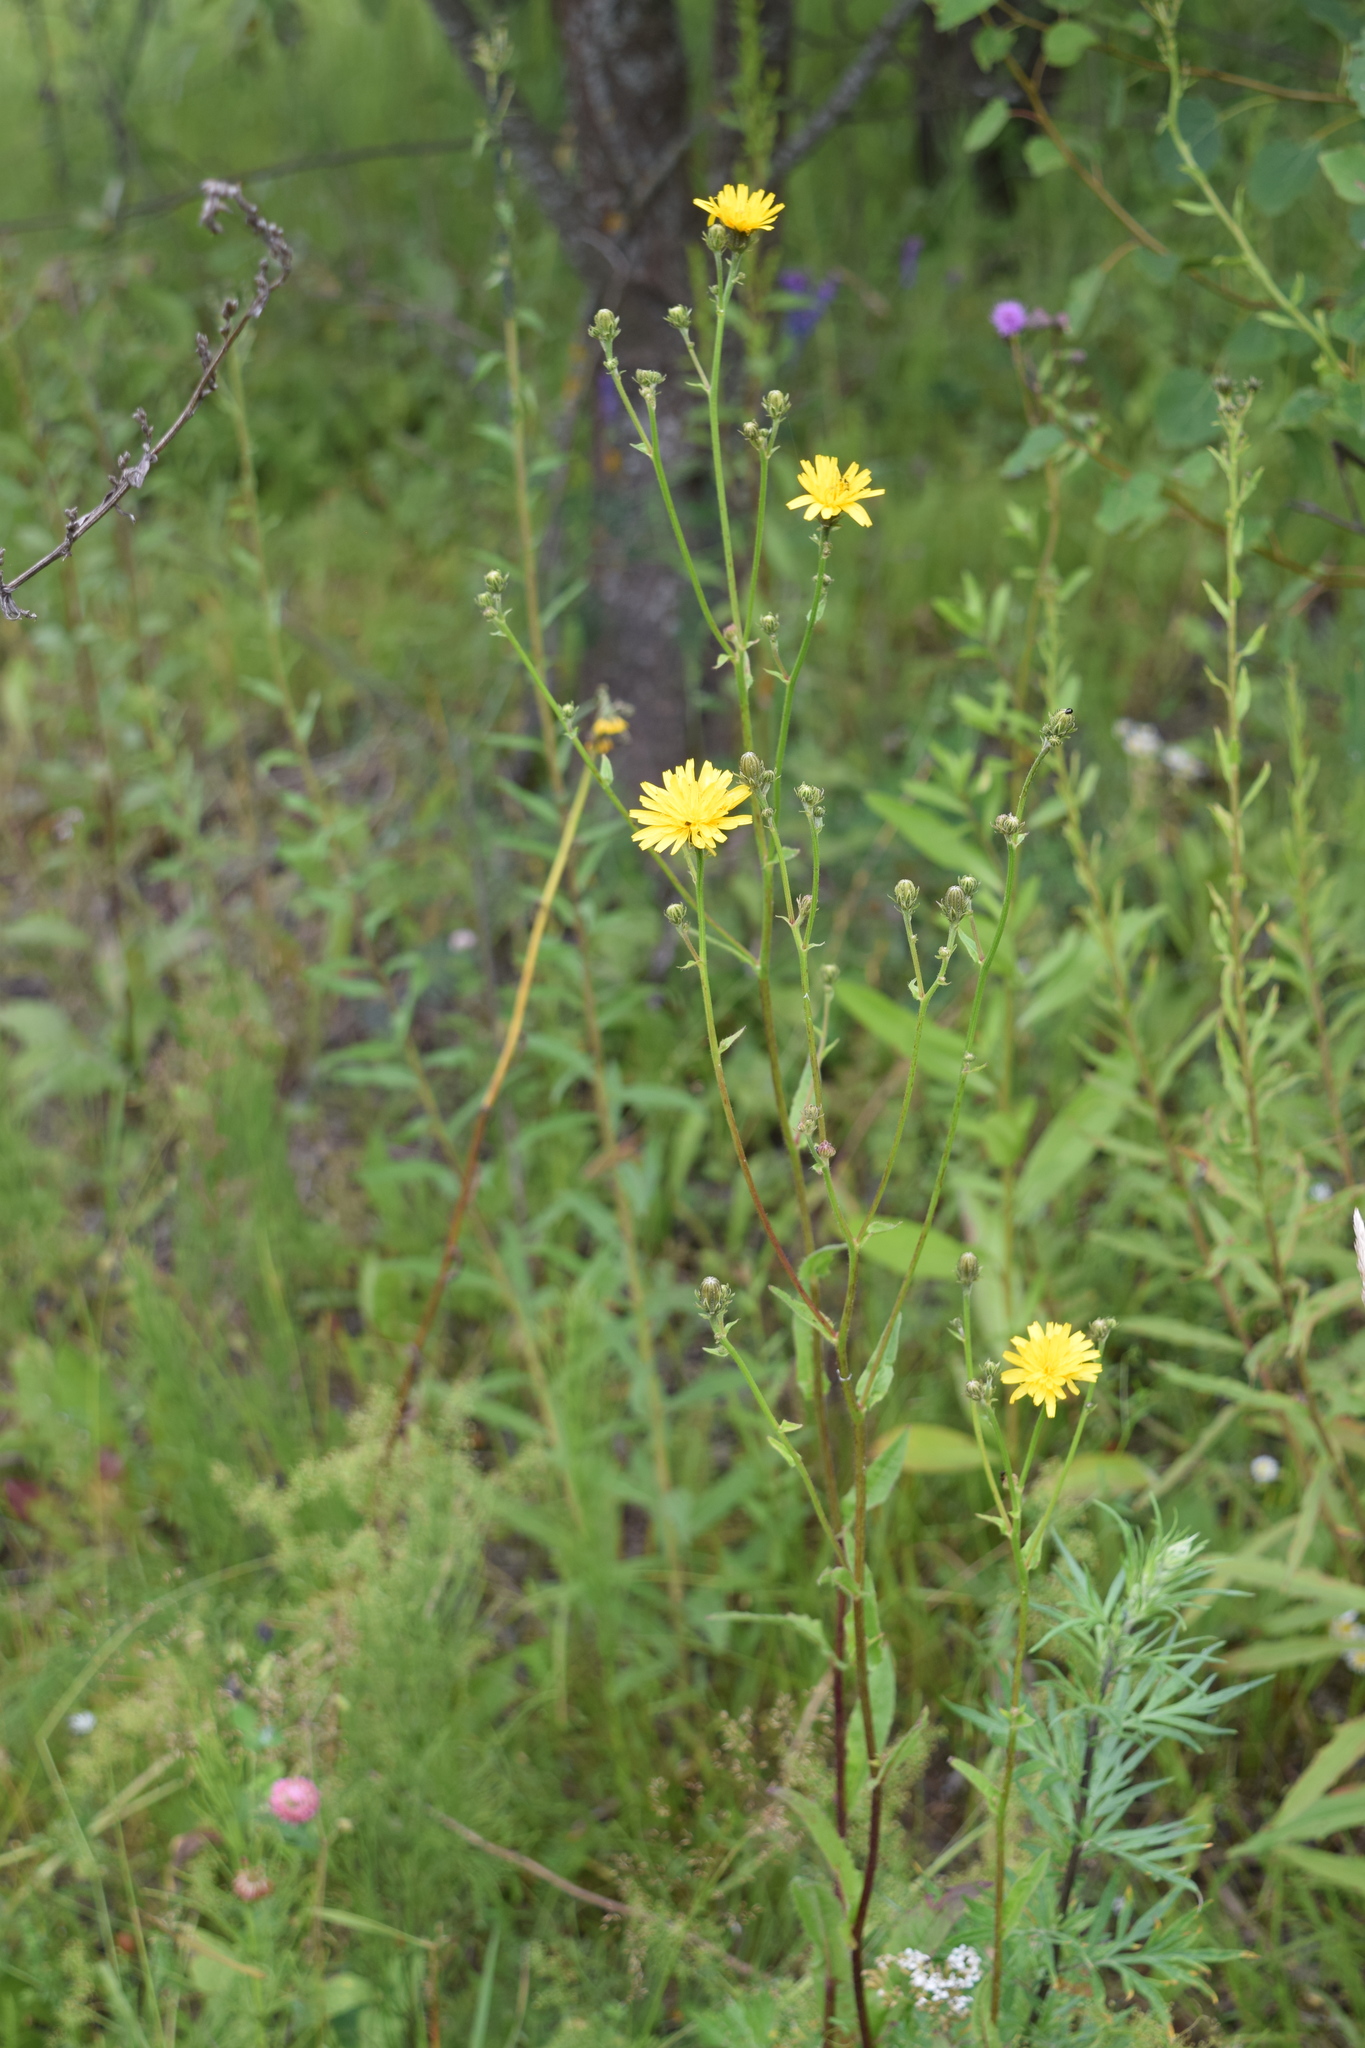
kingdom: Plantae
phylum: Tracheophyta
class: Magnoliopsida
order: Asterales
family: Asteraceae
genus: Picris
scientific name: Picris hieracioides
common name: Hawkweed oxtongue
